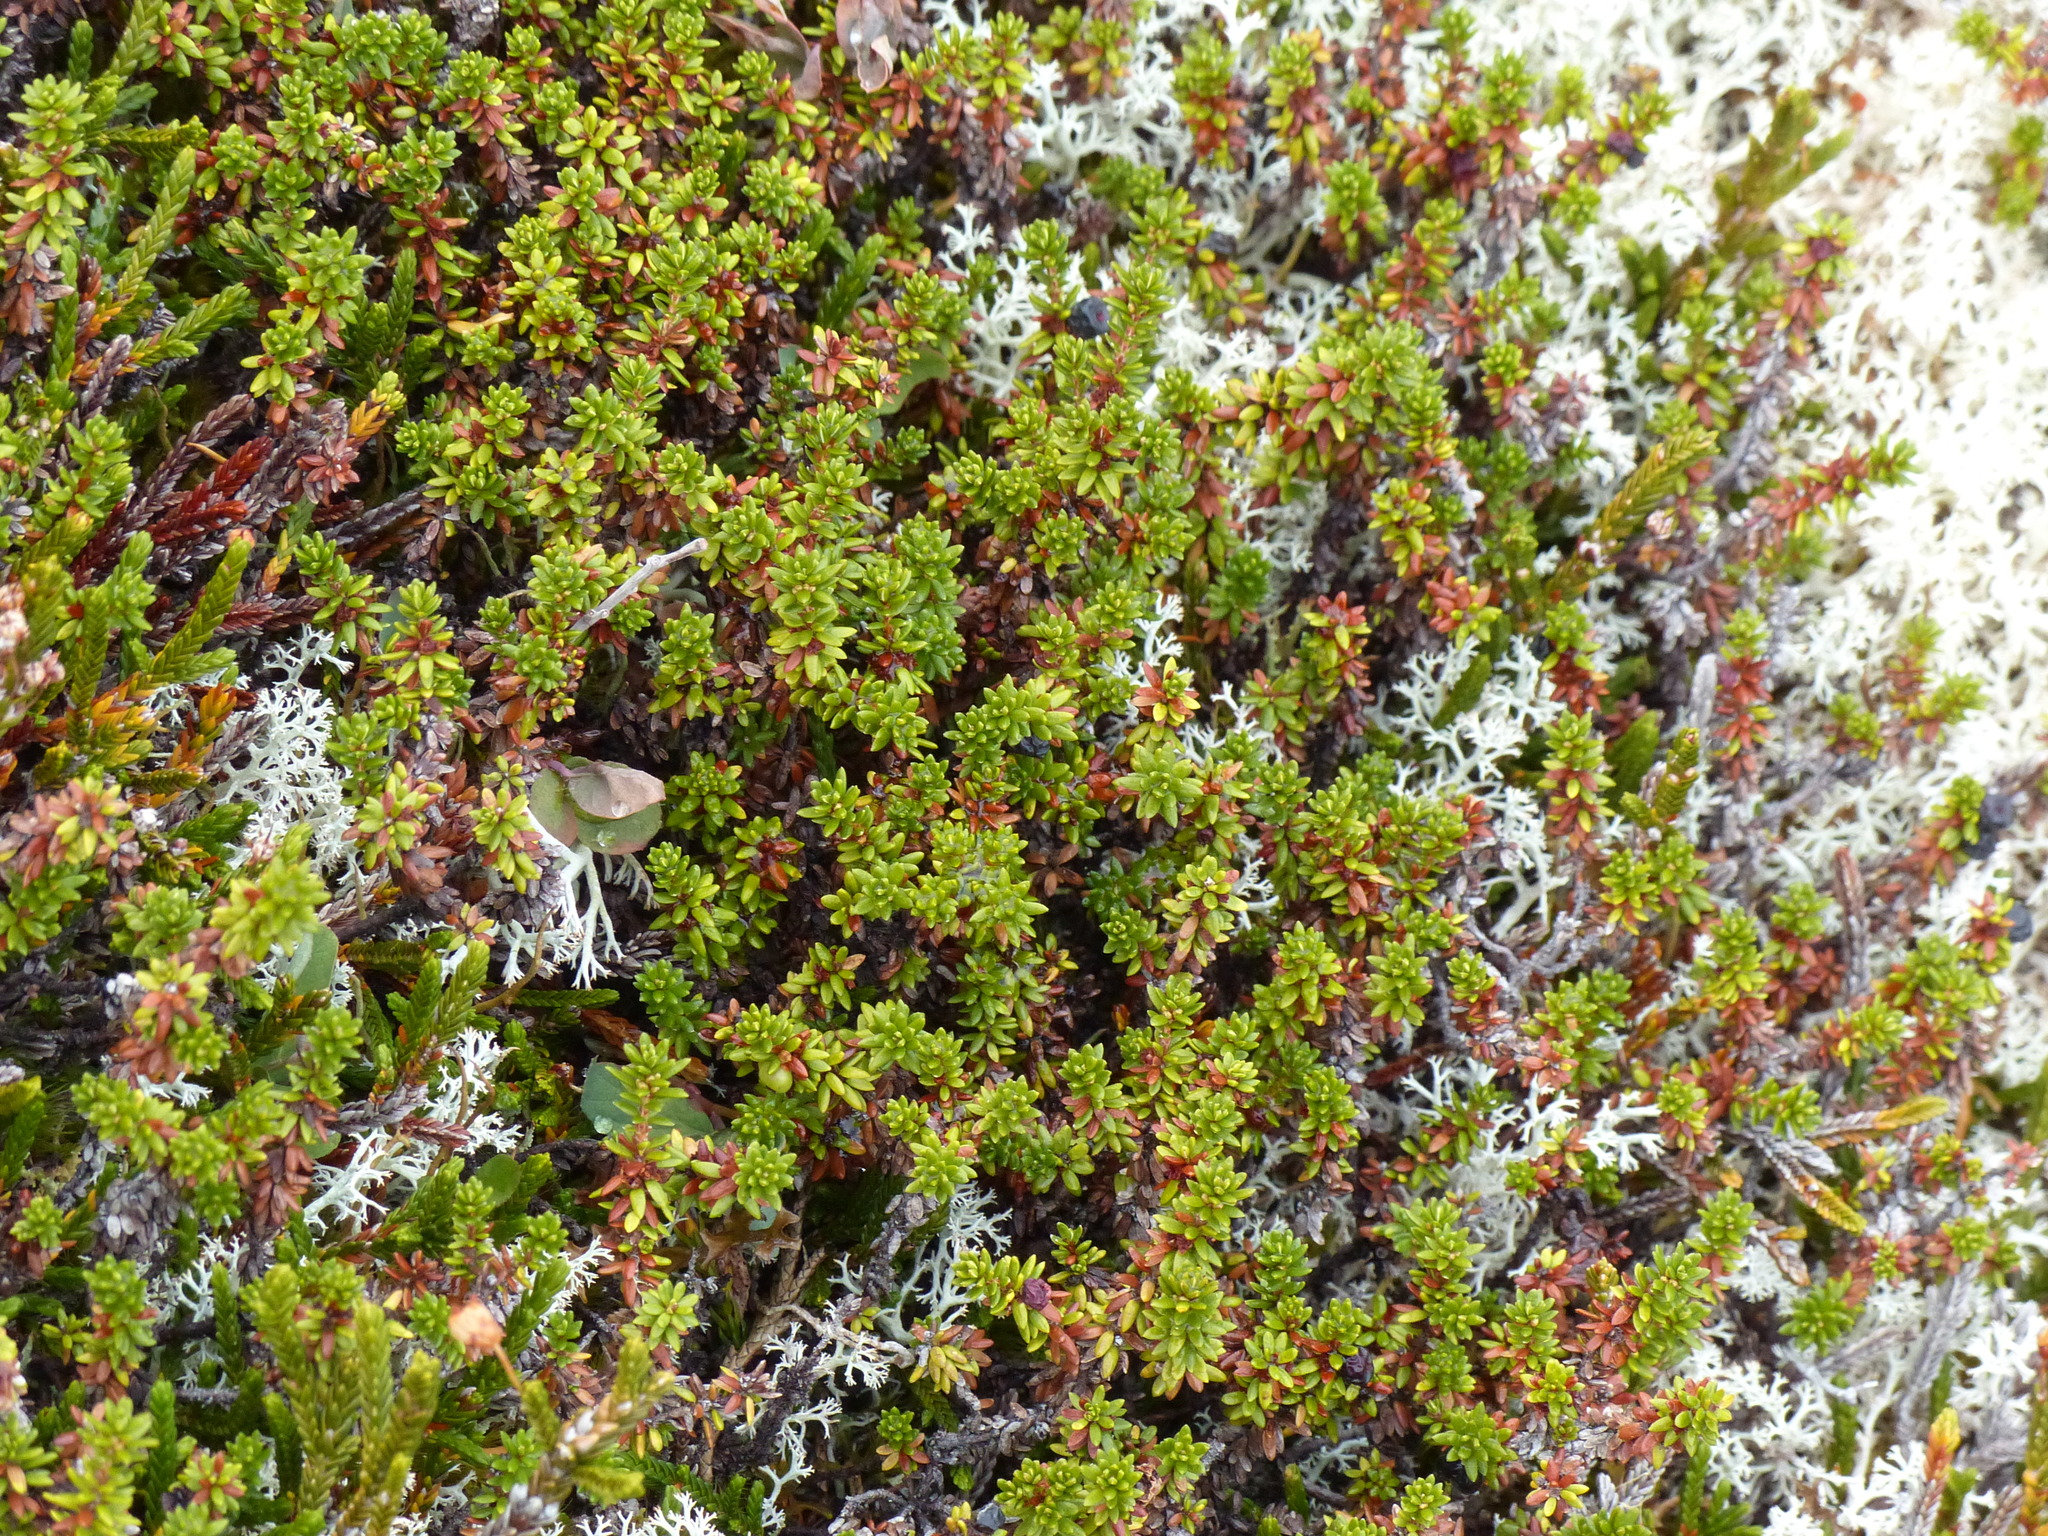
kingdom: Plantae
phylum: Tracheophyta
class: Magnoliopsida
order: Ericales
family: Ericaceae
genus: Empetrum
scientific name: Empetrum nigrum
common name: Black crowberry
